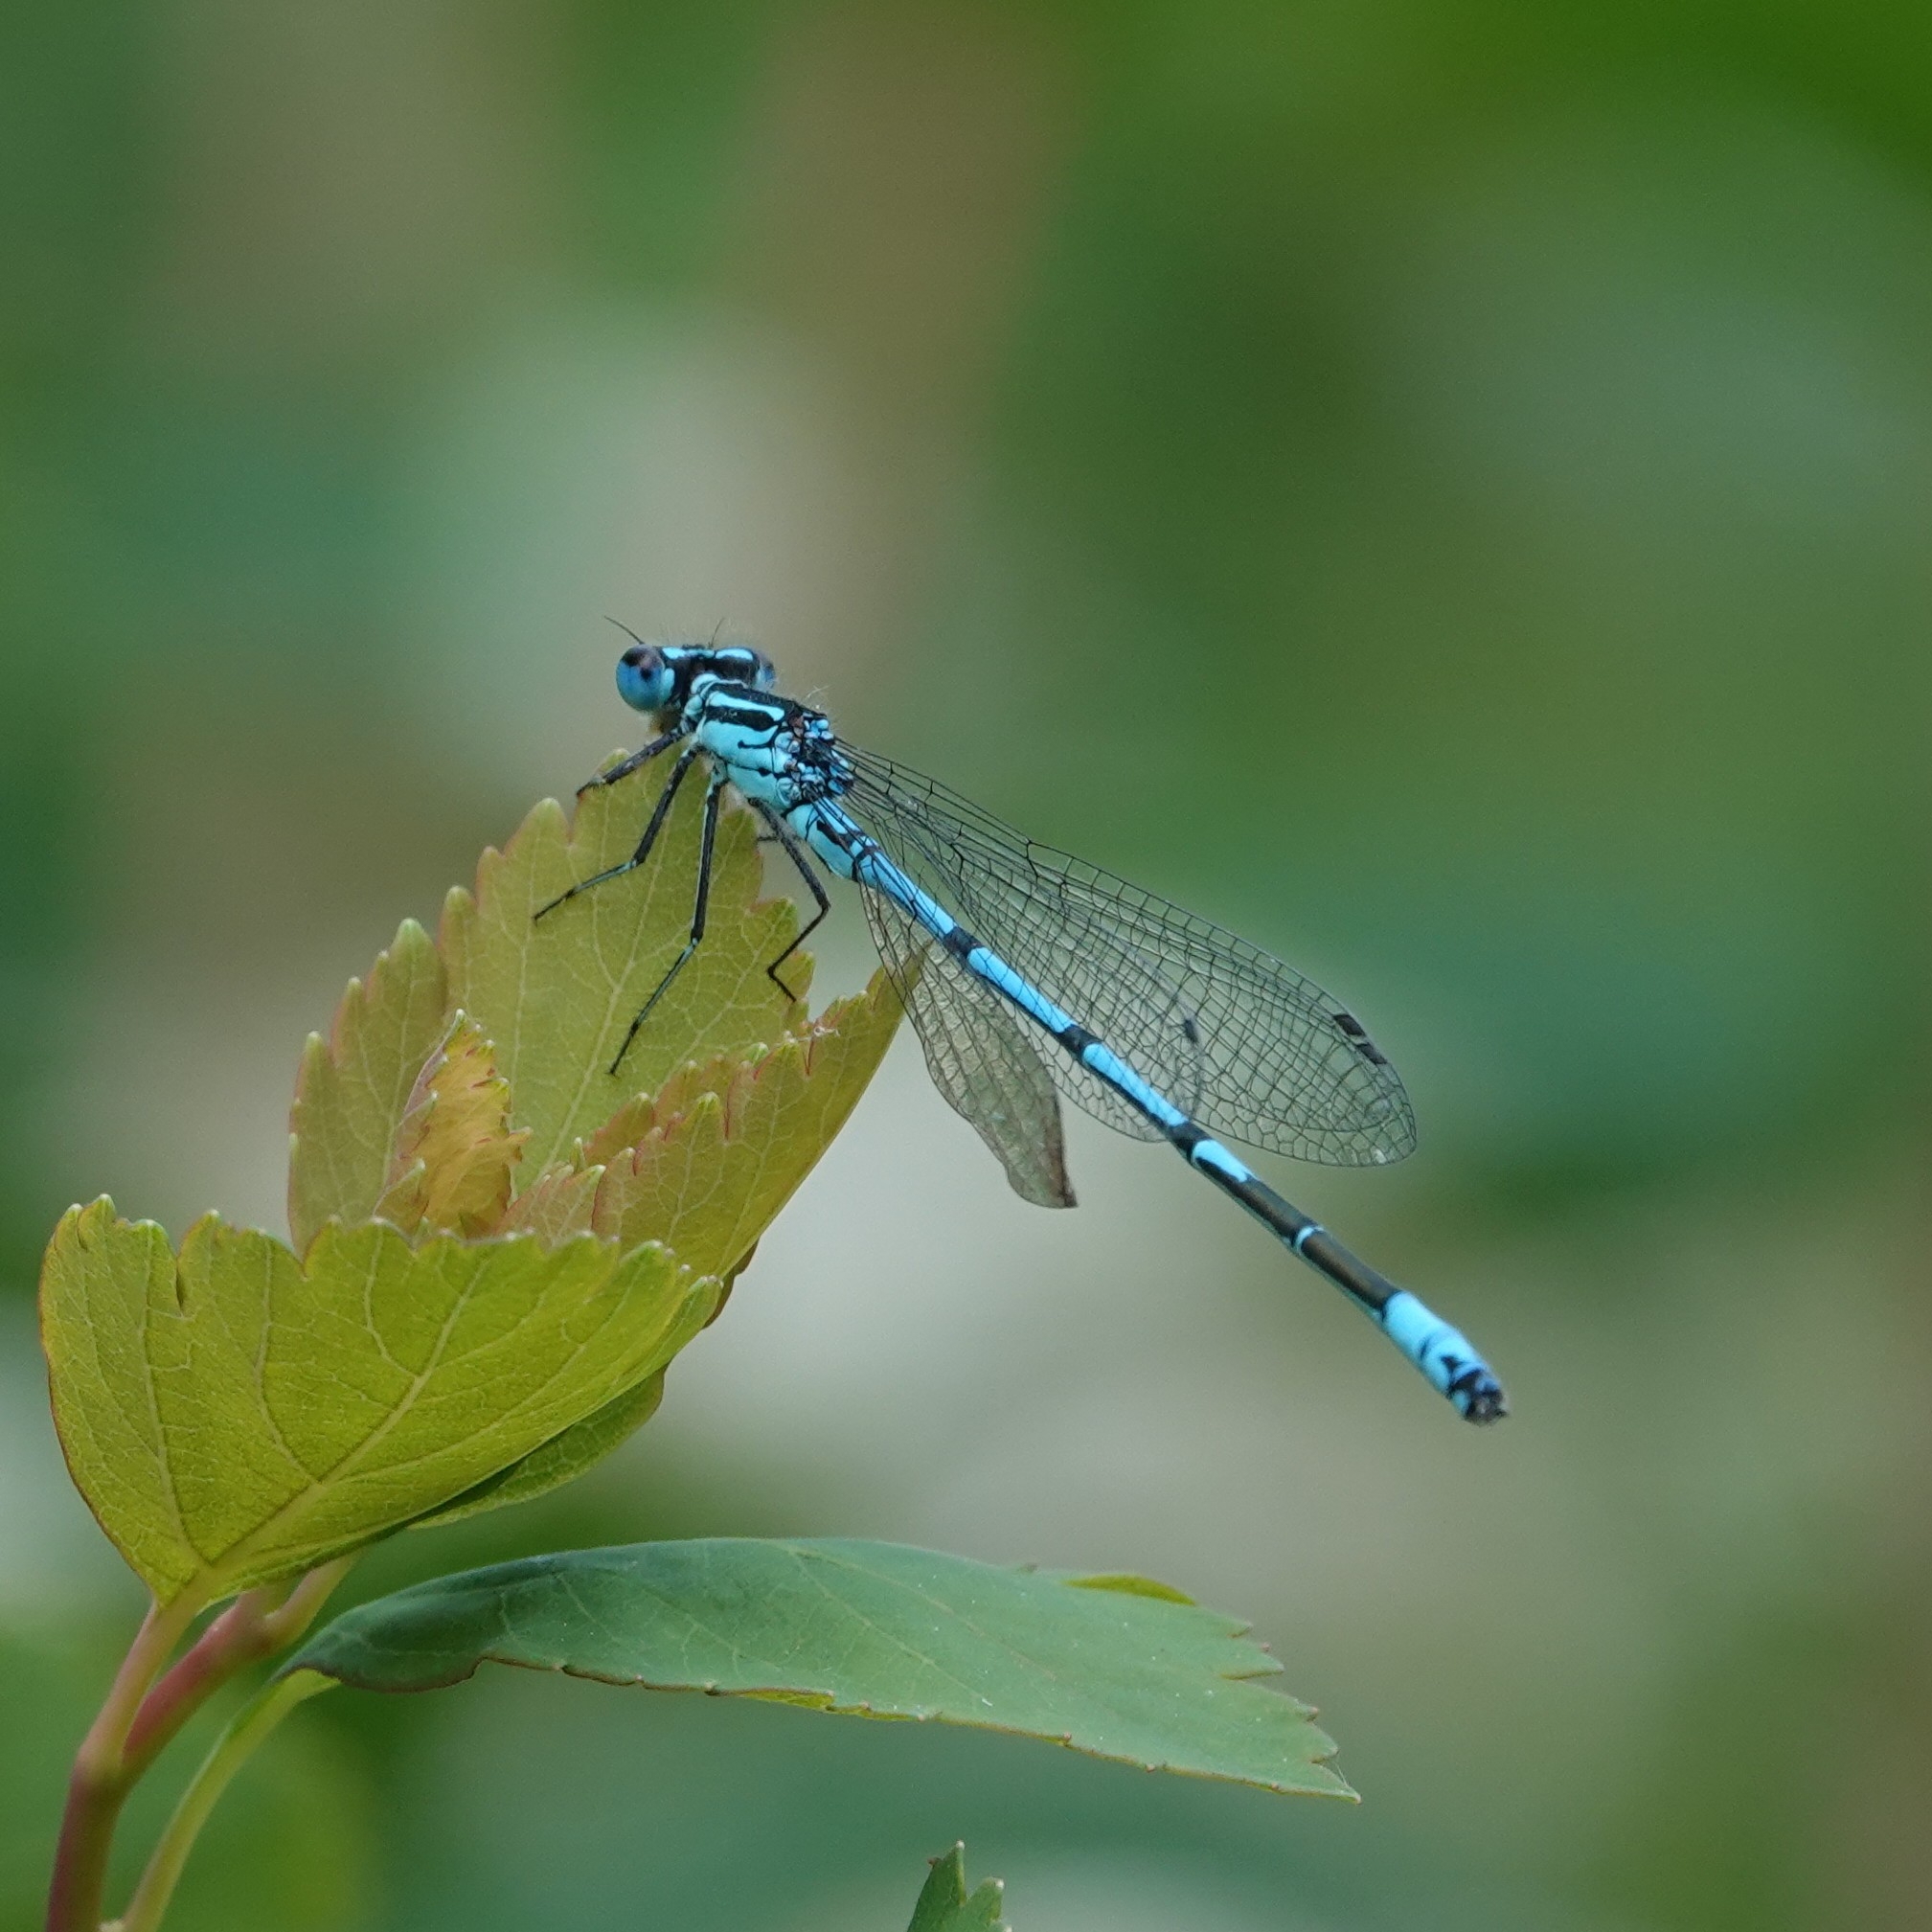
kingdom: Animalia
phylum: Arthropoda
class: Insecta
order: Odonata
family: Coenagrionidae
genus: Coenagrion
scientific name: Coenagrion puella
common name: Azure damselfly
